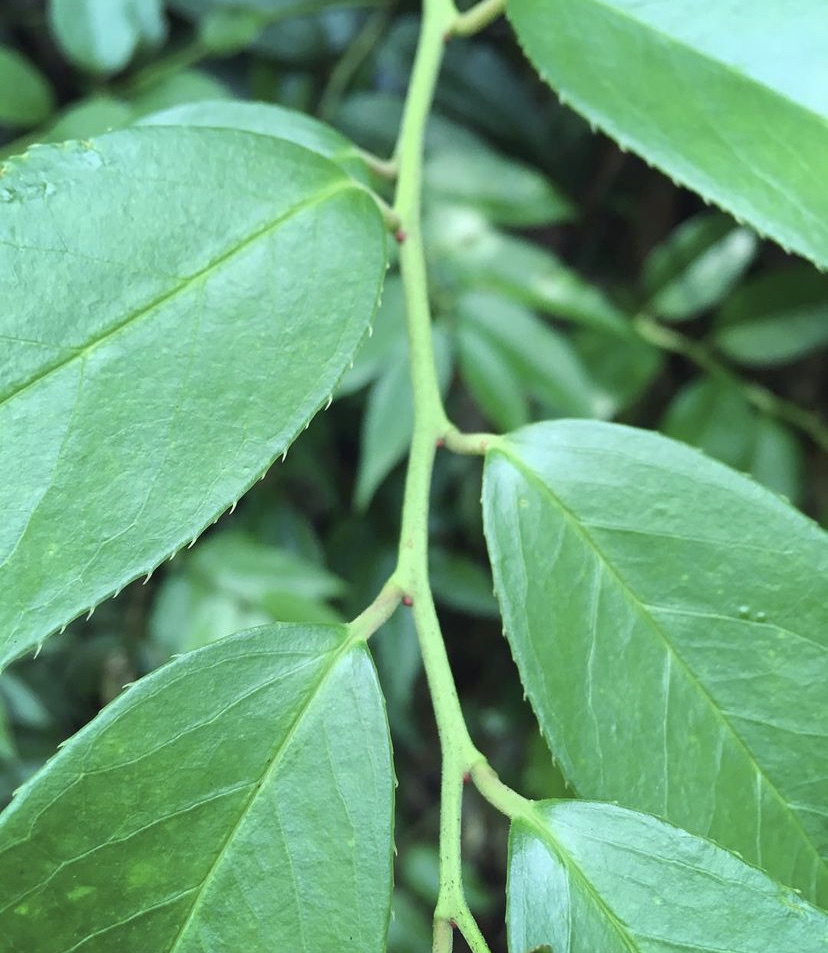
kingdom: Plantae
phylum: Tracheophyta
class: Magnoliopsida
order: Ericales
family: Ericaceae
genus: Leucothoe
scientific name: Leucothoe fontanesiana
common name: Fetterbush
